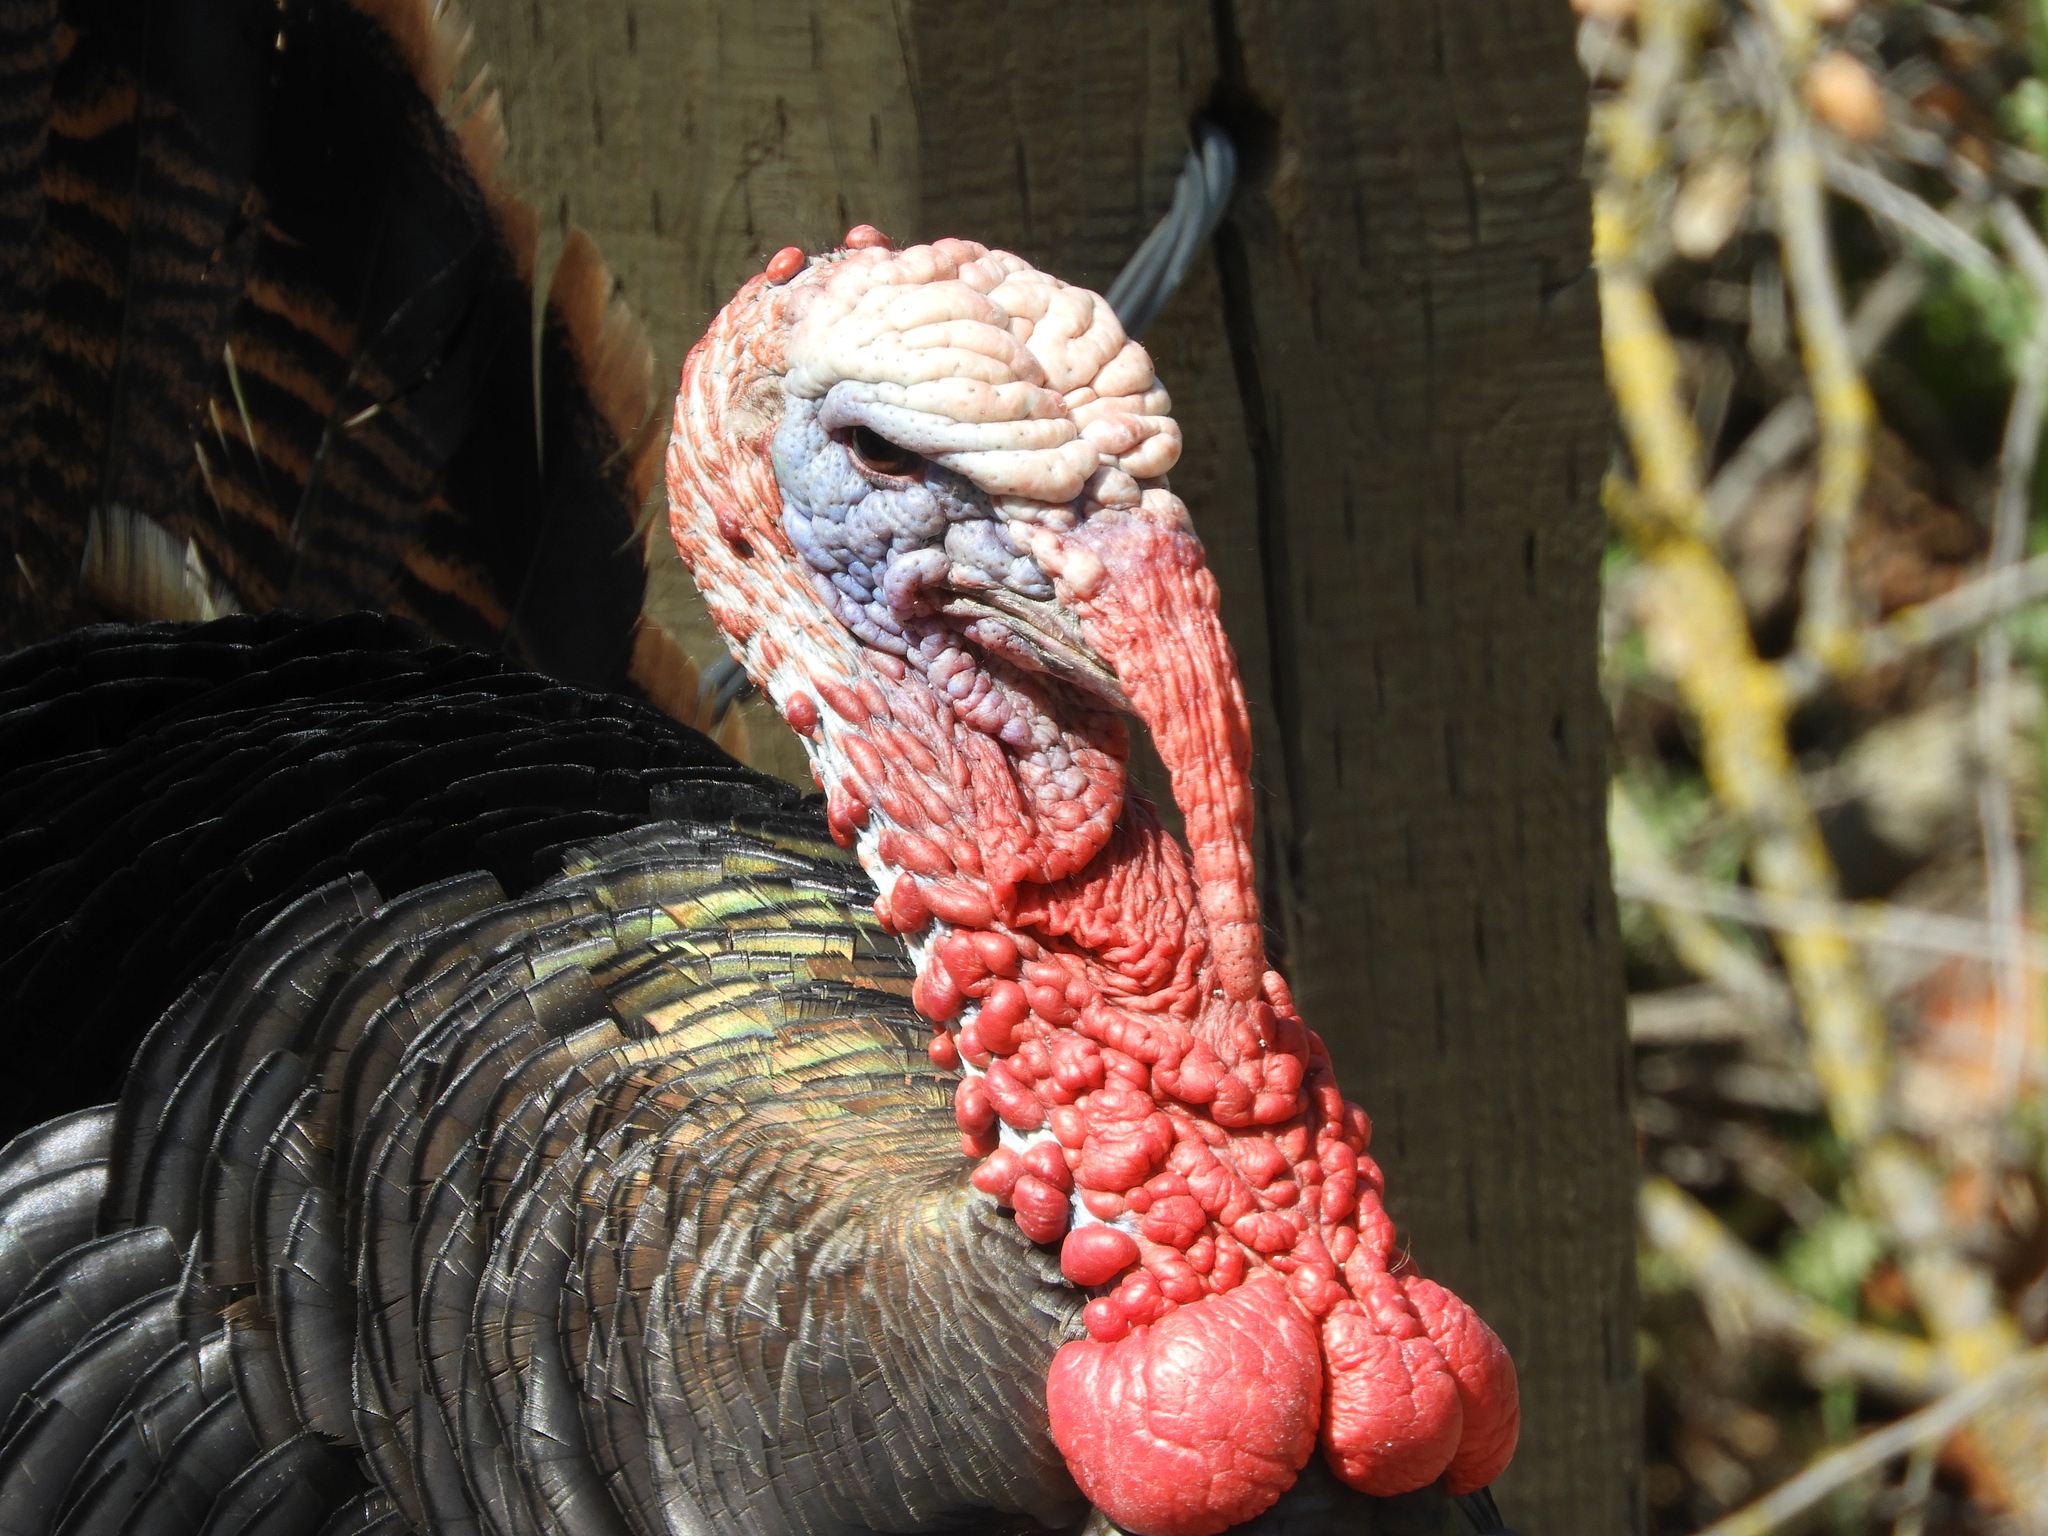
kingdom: Animalia
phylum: Chordata
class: Aves
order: Galliformes
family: Phasianidae
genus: Meleagris
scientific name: Meleagris gallopavo
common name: Wild turkey
